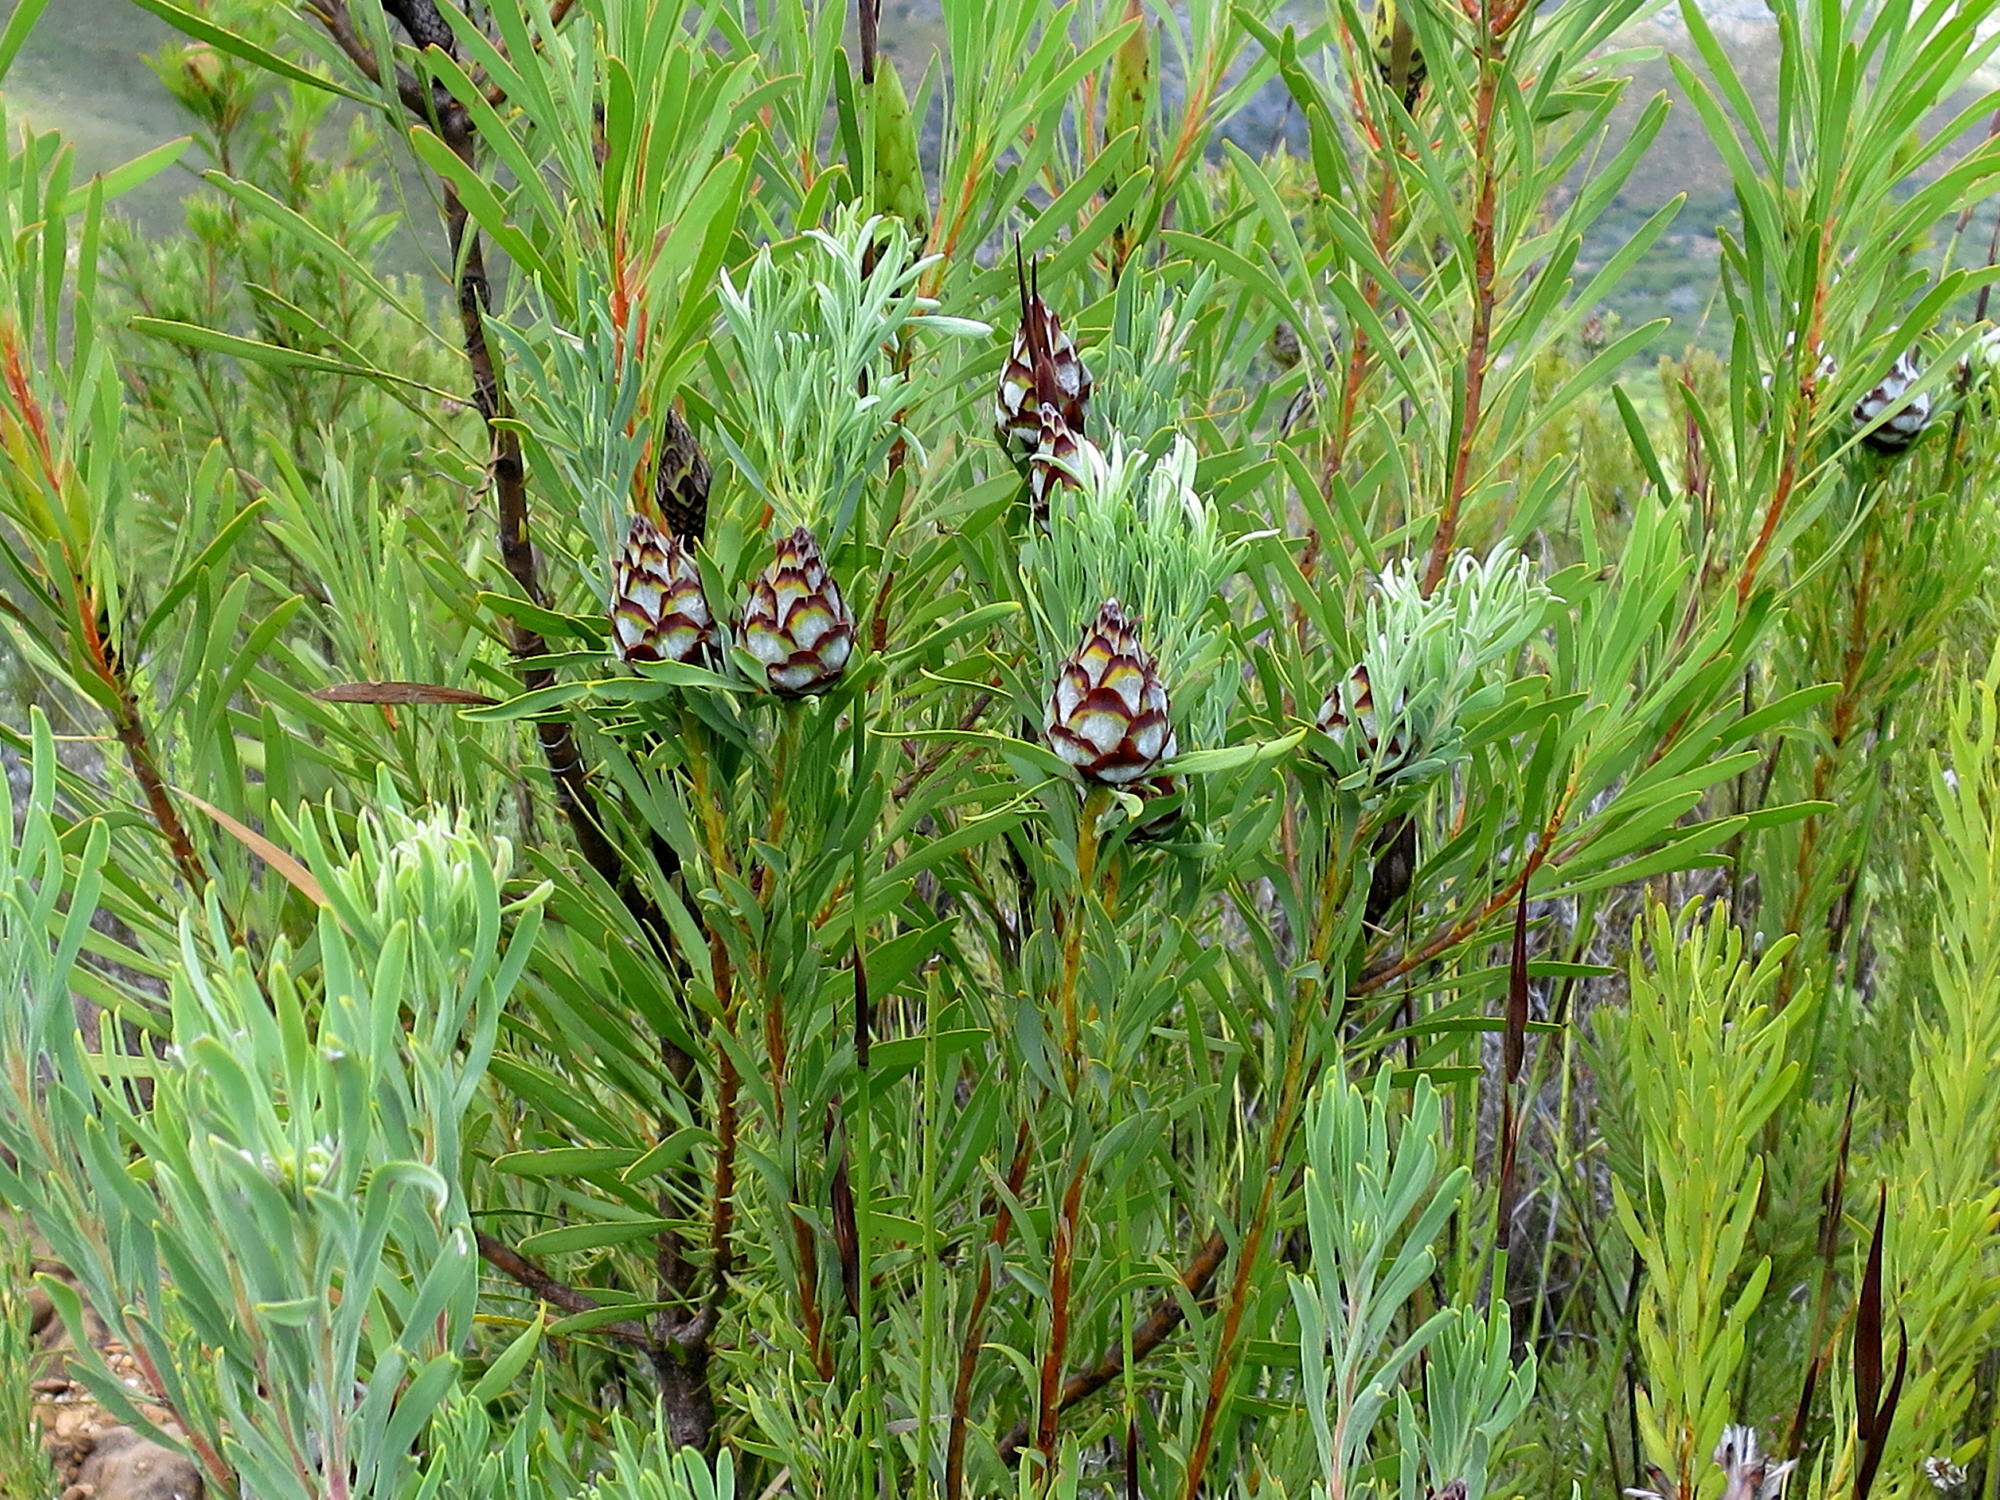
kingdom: Plantae
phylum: Tracheophyta
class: Magnoliopsida
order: Proteales
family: Proteaceae
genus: Leucadendron
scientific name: Leucadendron rubrum
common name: Spinning top
